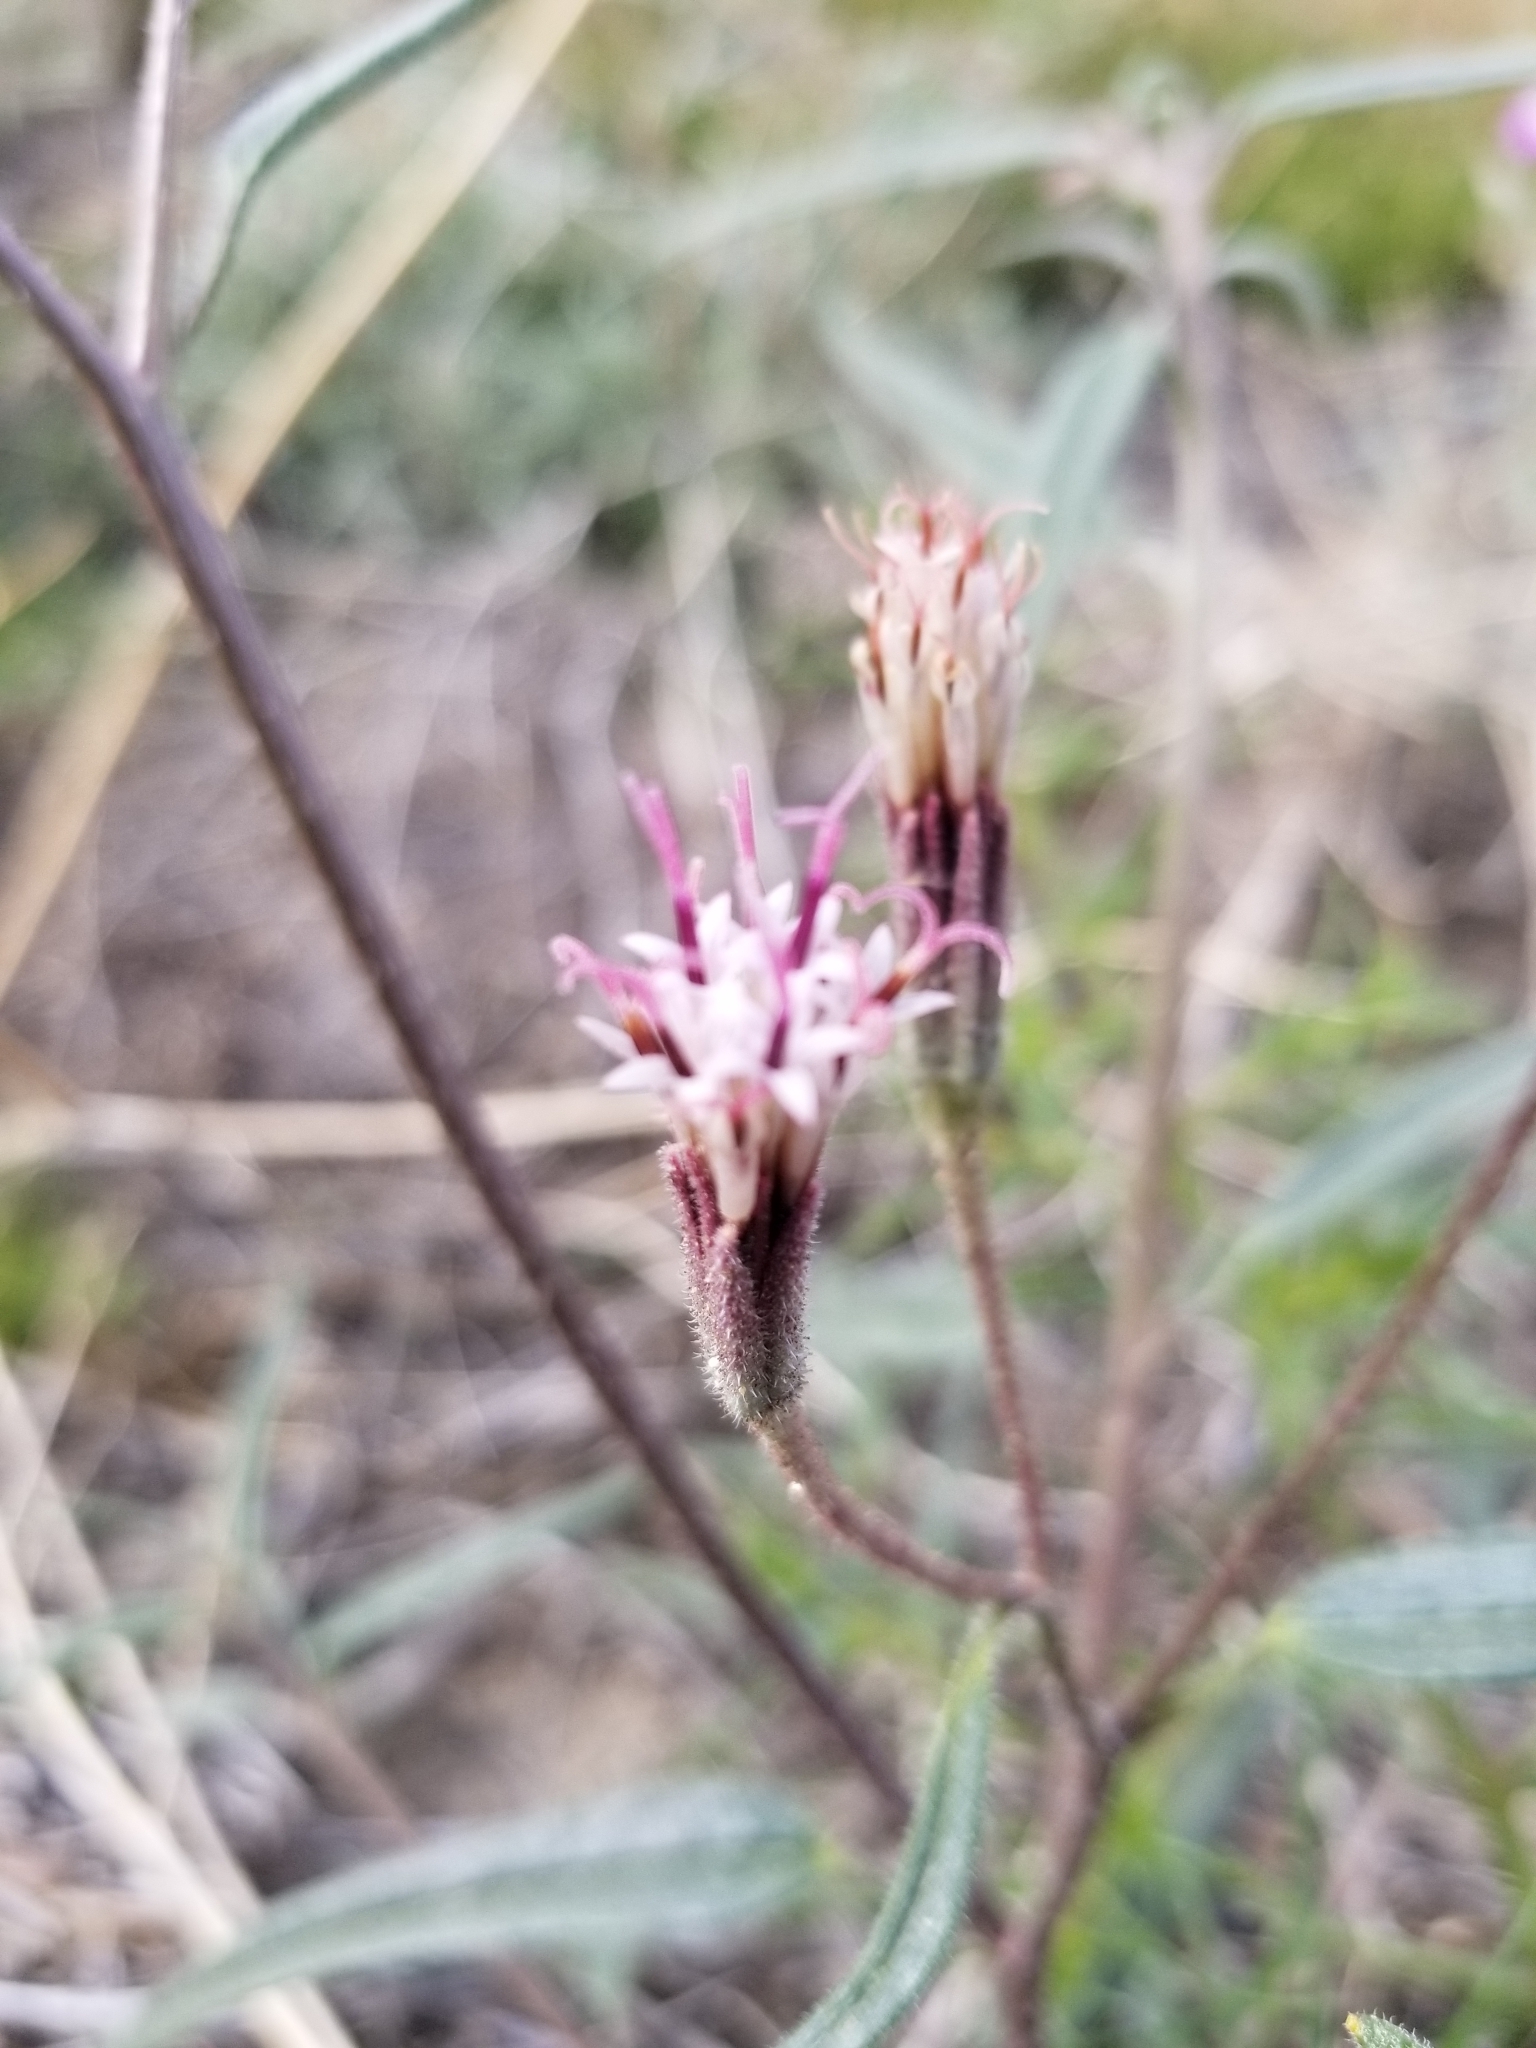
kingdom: Plantae
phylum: Tracheophyta
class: Magnoliopsida
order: Asterales
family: Asteraceae
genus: Palafoxia
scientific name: Palafoxia arida
